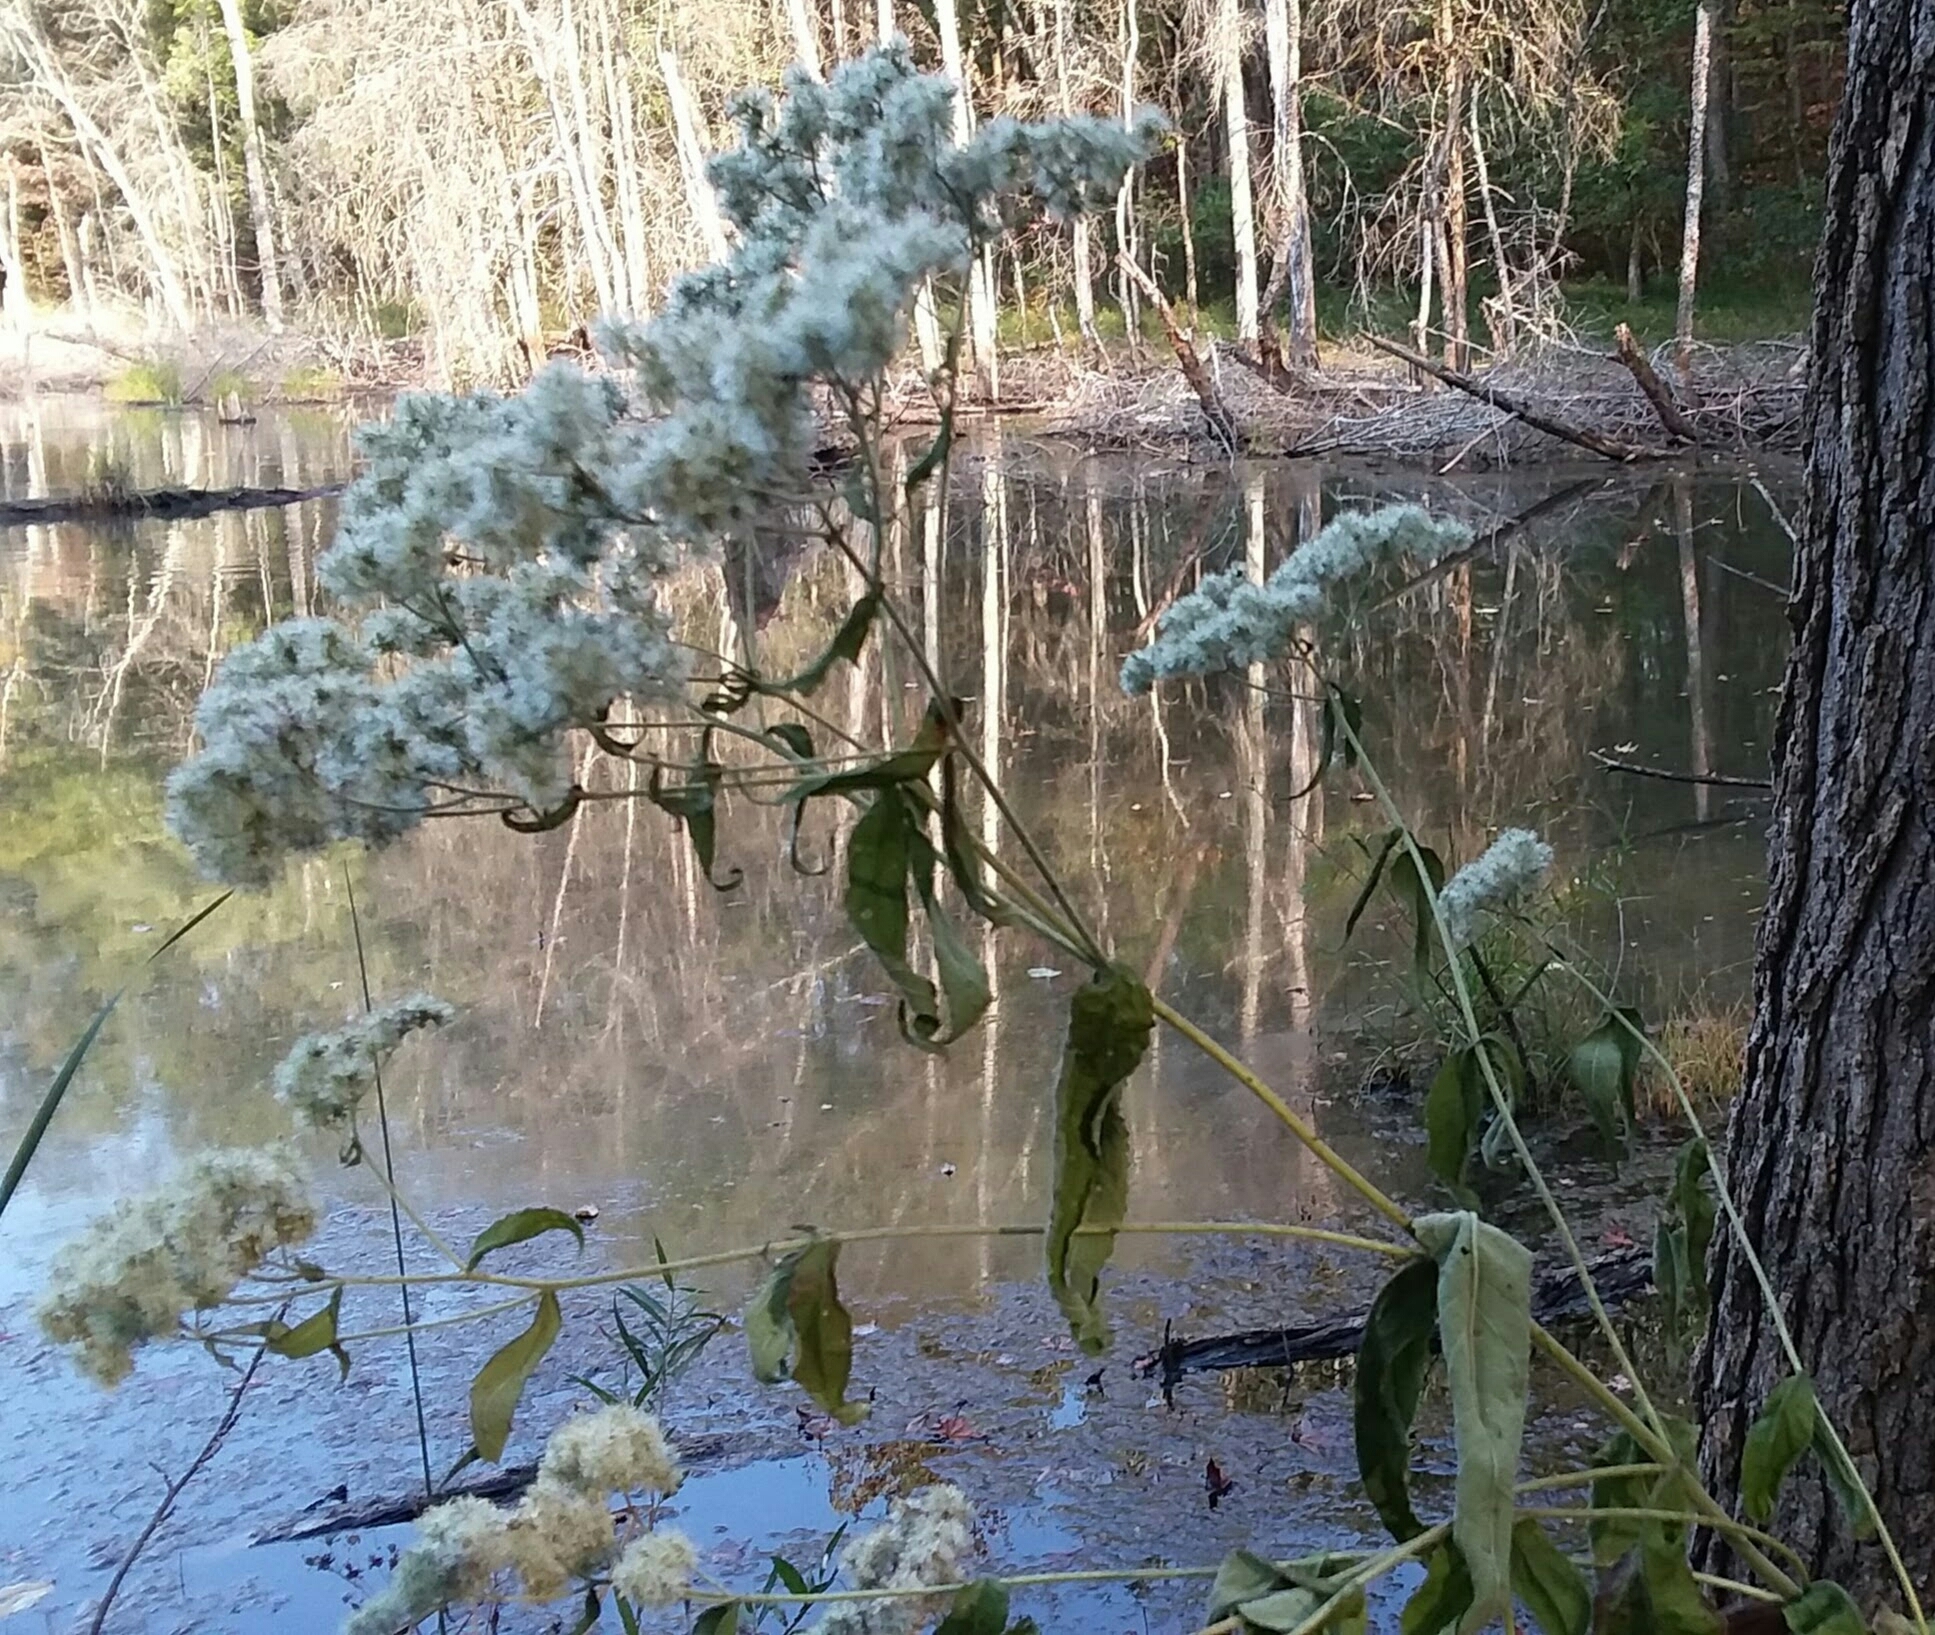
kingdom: Plantae
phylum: Tracheophyta
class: Magnoliopsida
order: Asterales
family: Asteraceae
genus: Eupatorium
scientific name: Eupatorium serotinum
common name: Late boneset
